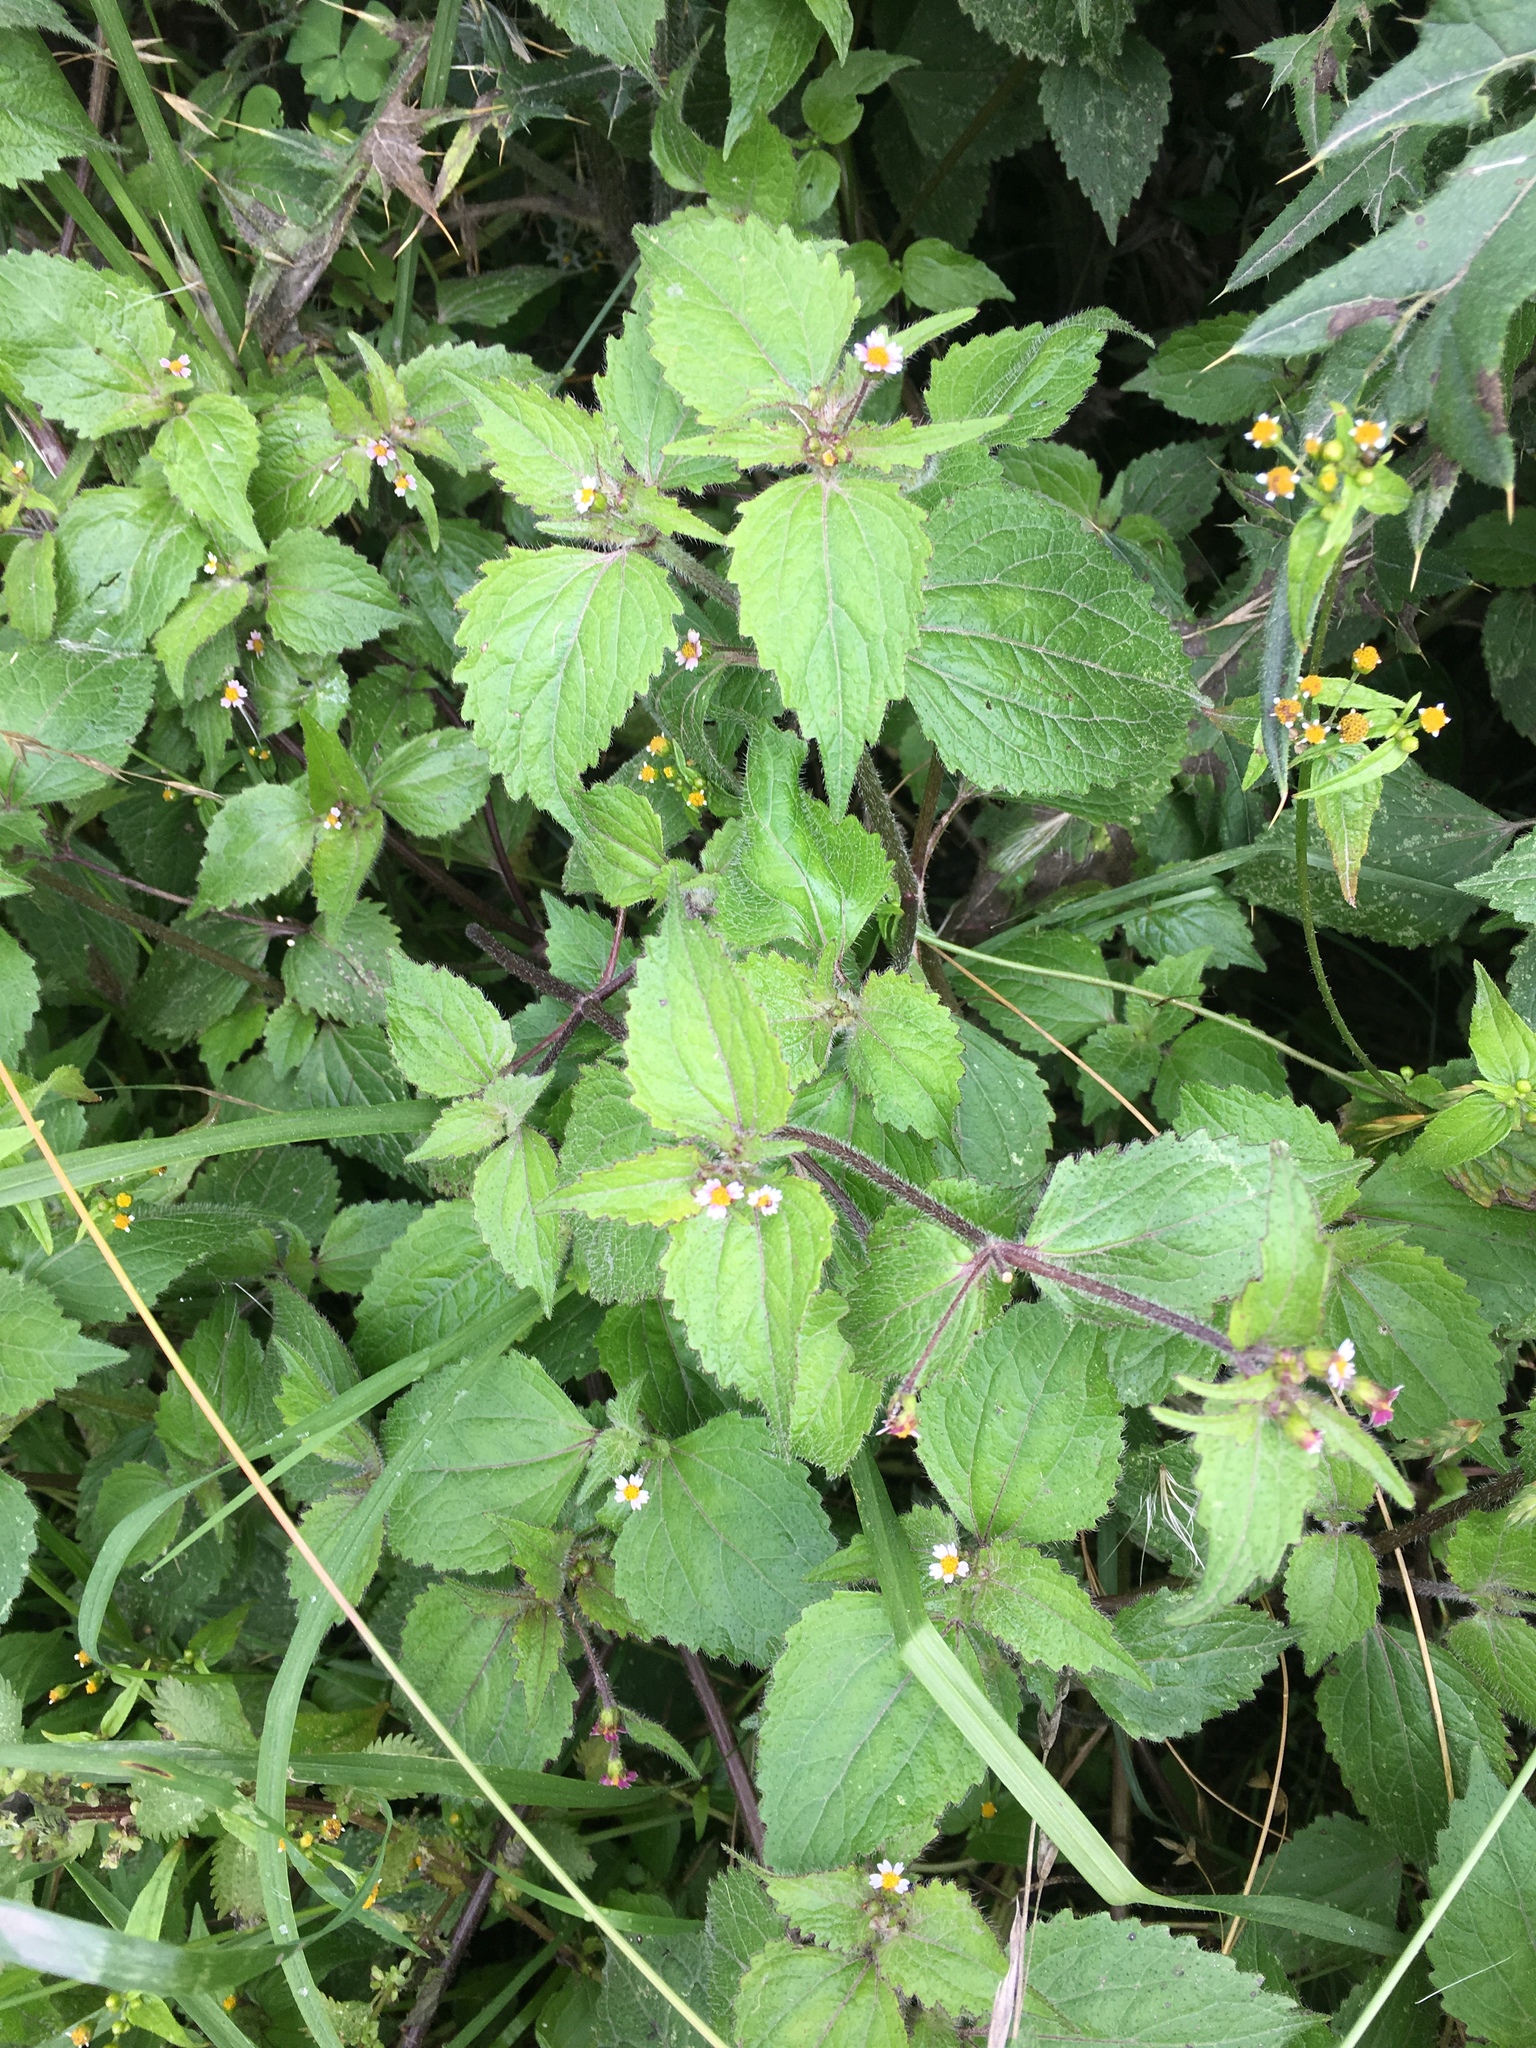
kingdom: Plantae
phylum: Tracheophyta
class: Magnoliopsida
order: Asterales
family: Asteraceae
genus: Galinsoga
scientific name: Galinsoga quadriradiata
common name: Shaggy soldier
